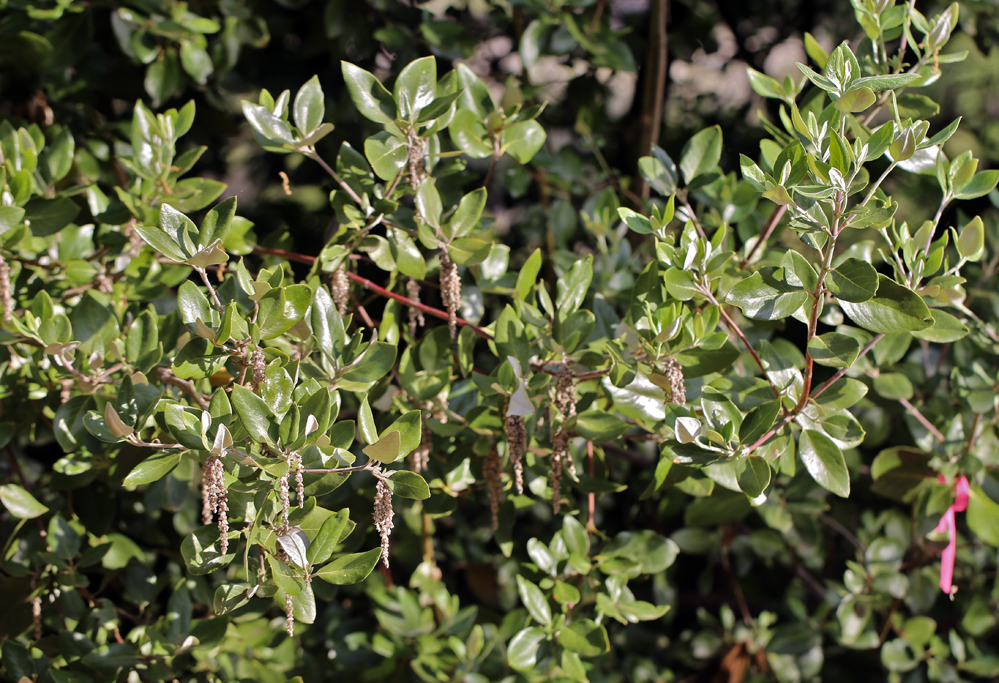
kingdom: Plantae
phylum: Tracheophyta
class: Magnoliopsida
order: Garryales
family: Garryaceae
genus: Garrya
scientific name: Garrya veatchii
